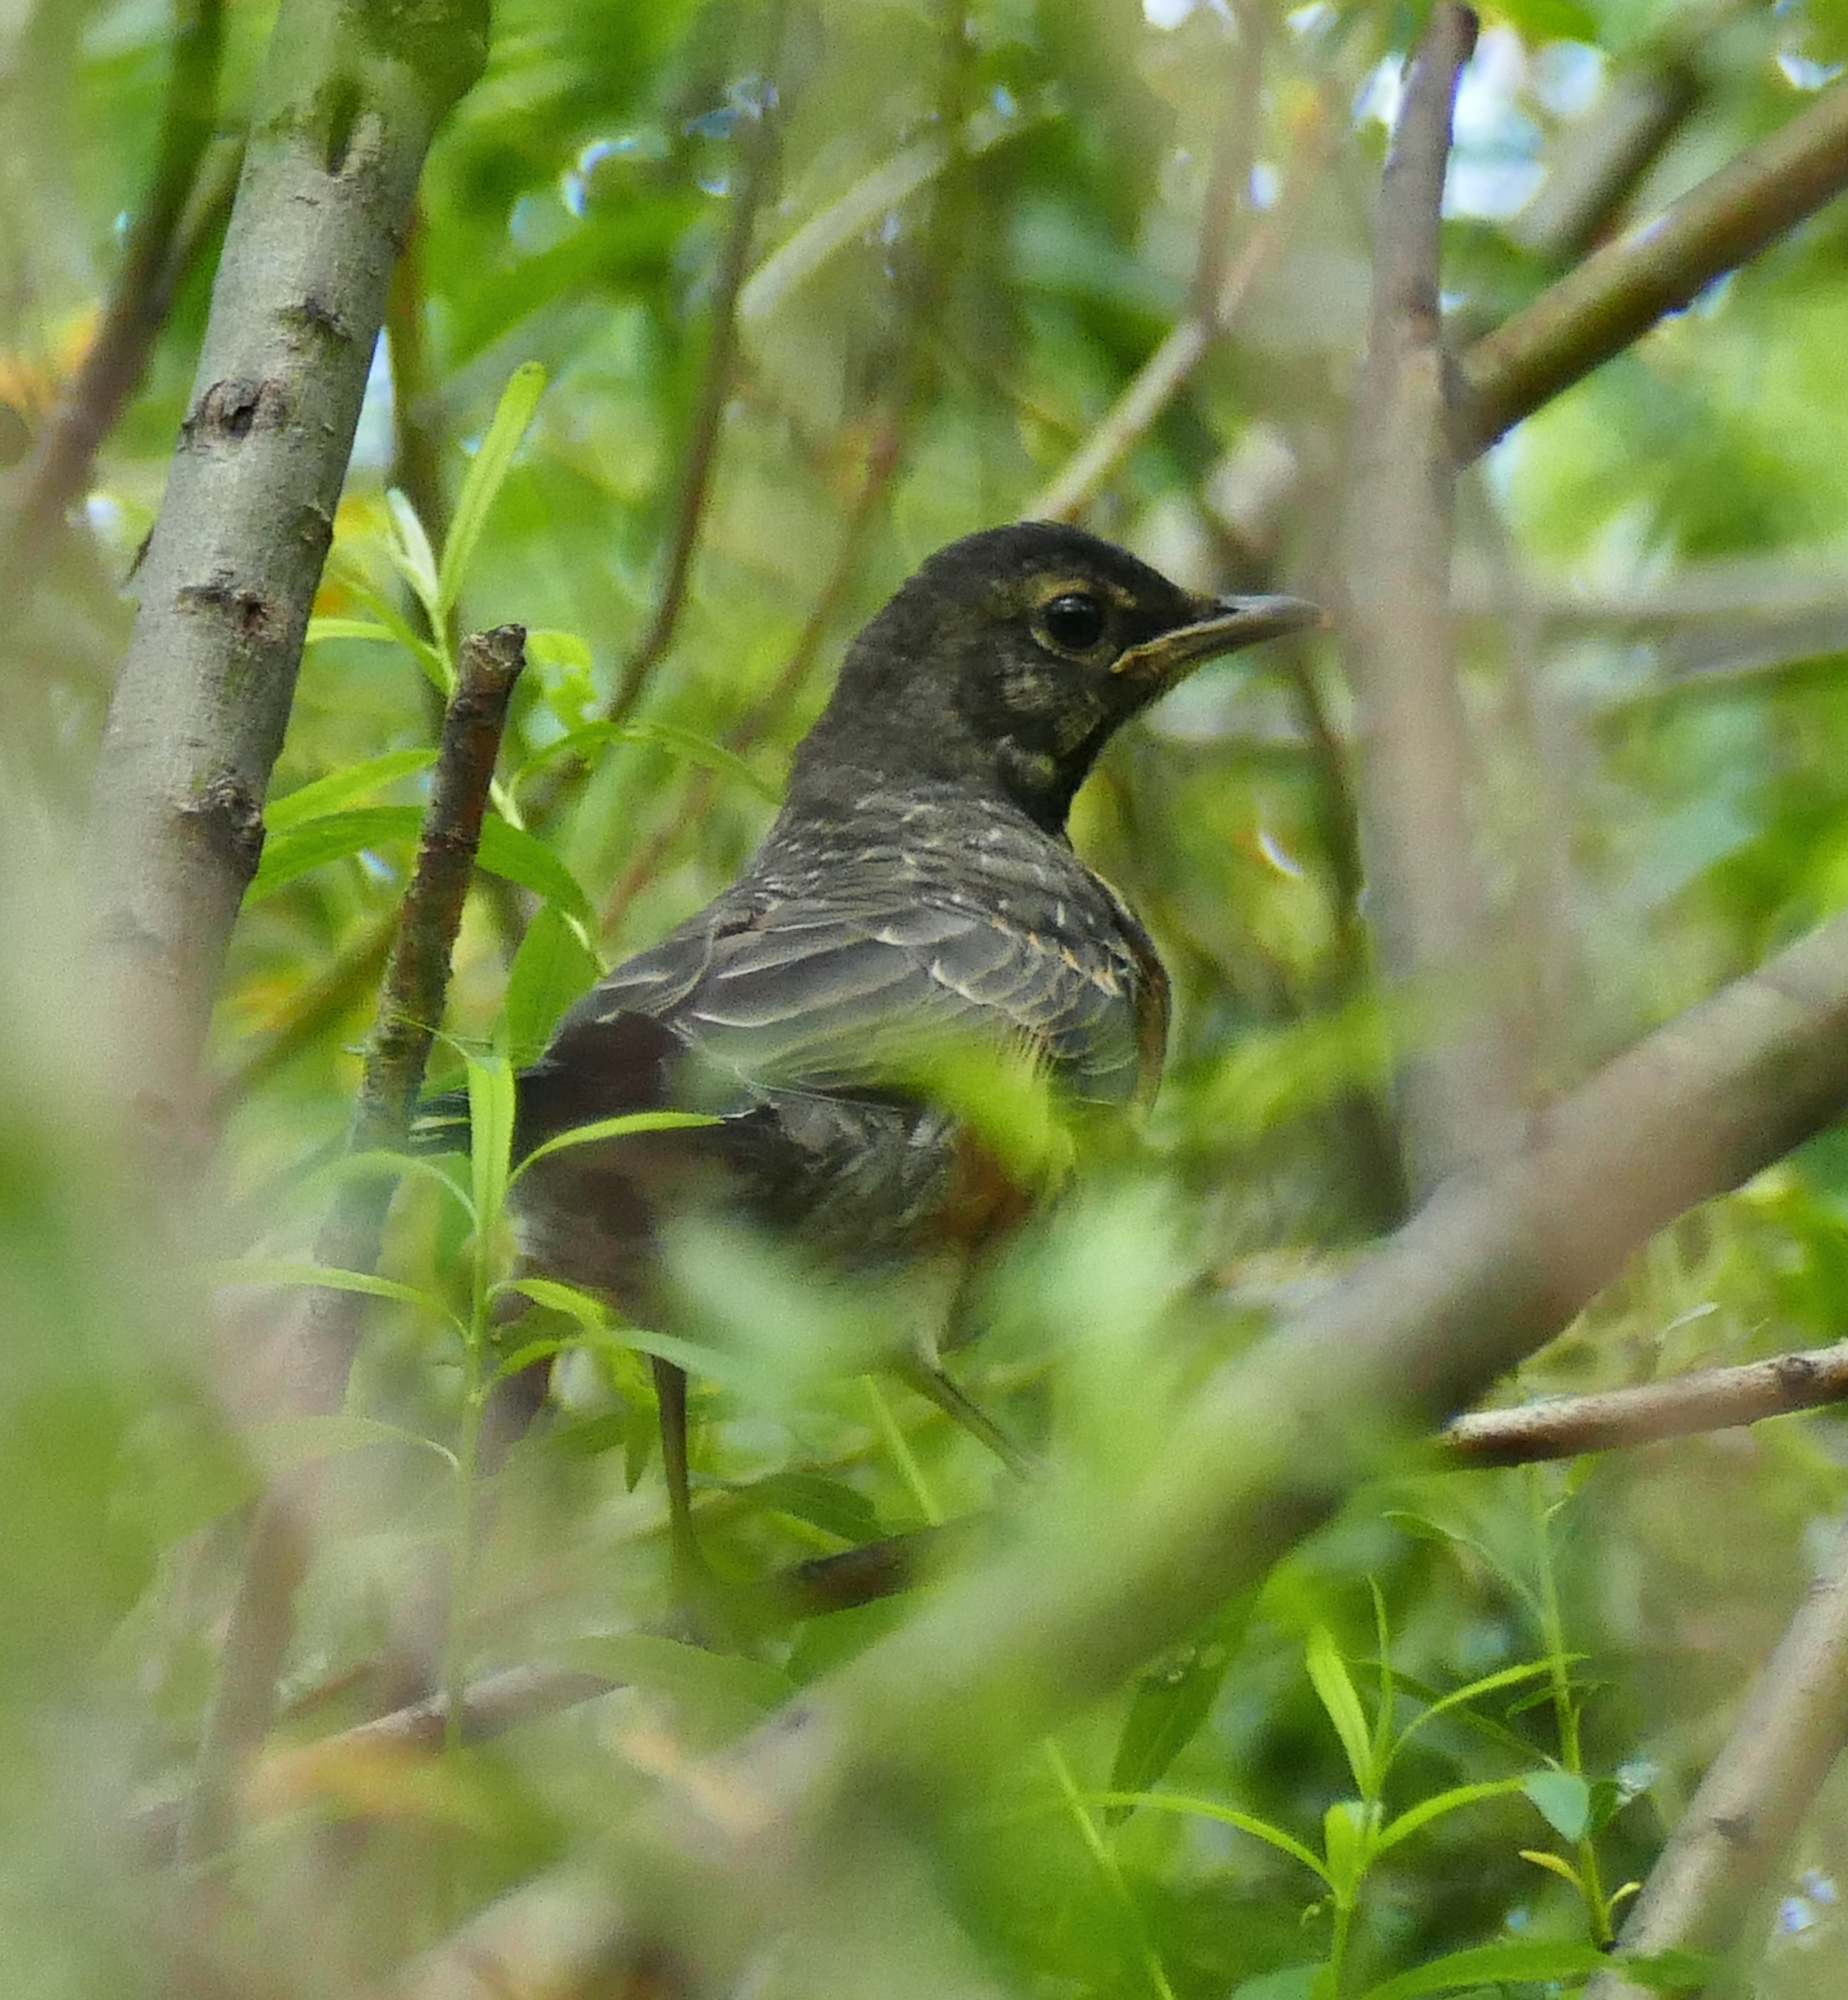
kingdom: Animalia
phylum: Chordata
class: Aves
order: Passeriformes
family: Turdidae
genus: Turdus
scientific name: Turdus migratorius
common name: American robin
